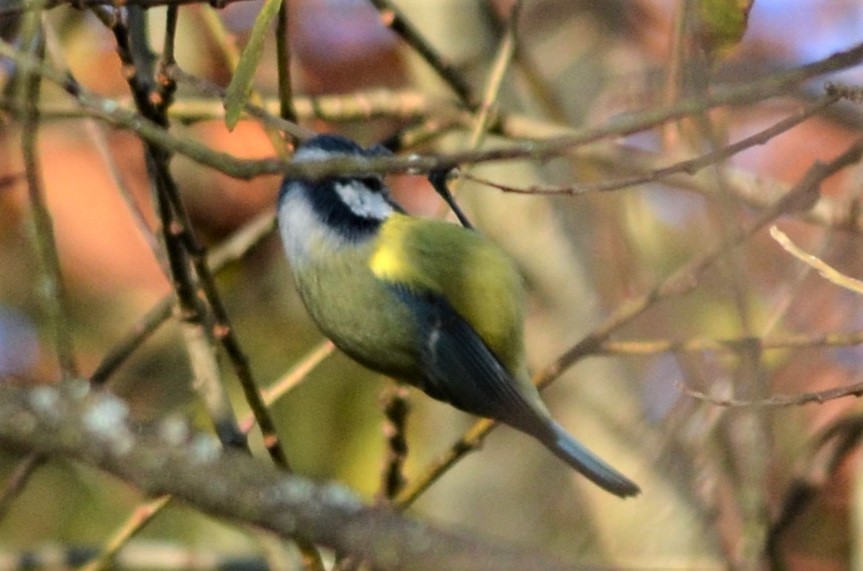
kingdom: Animalia
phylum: Chordata
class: Aves
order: Passeriformes
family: Paridae
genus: Cyanistes
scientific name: Cyanistes caeruleus
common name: Eurasian blue tit
